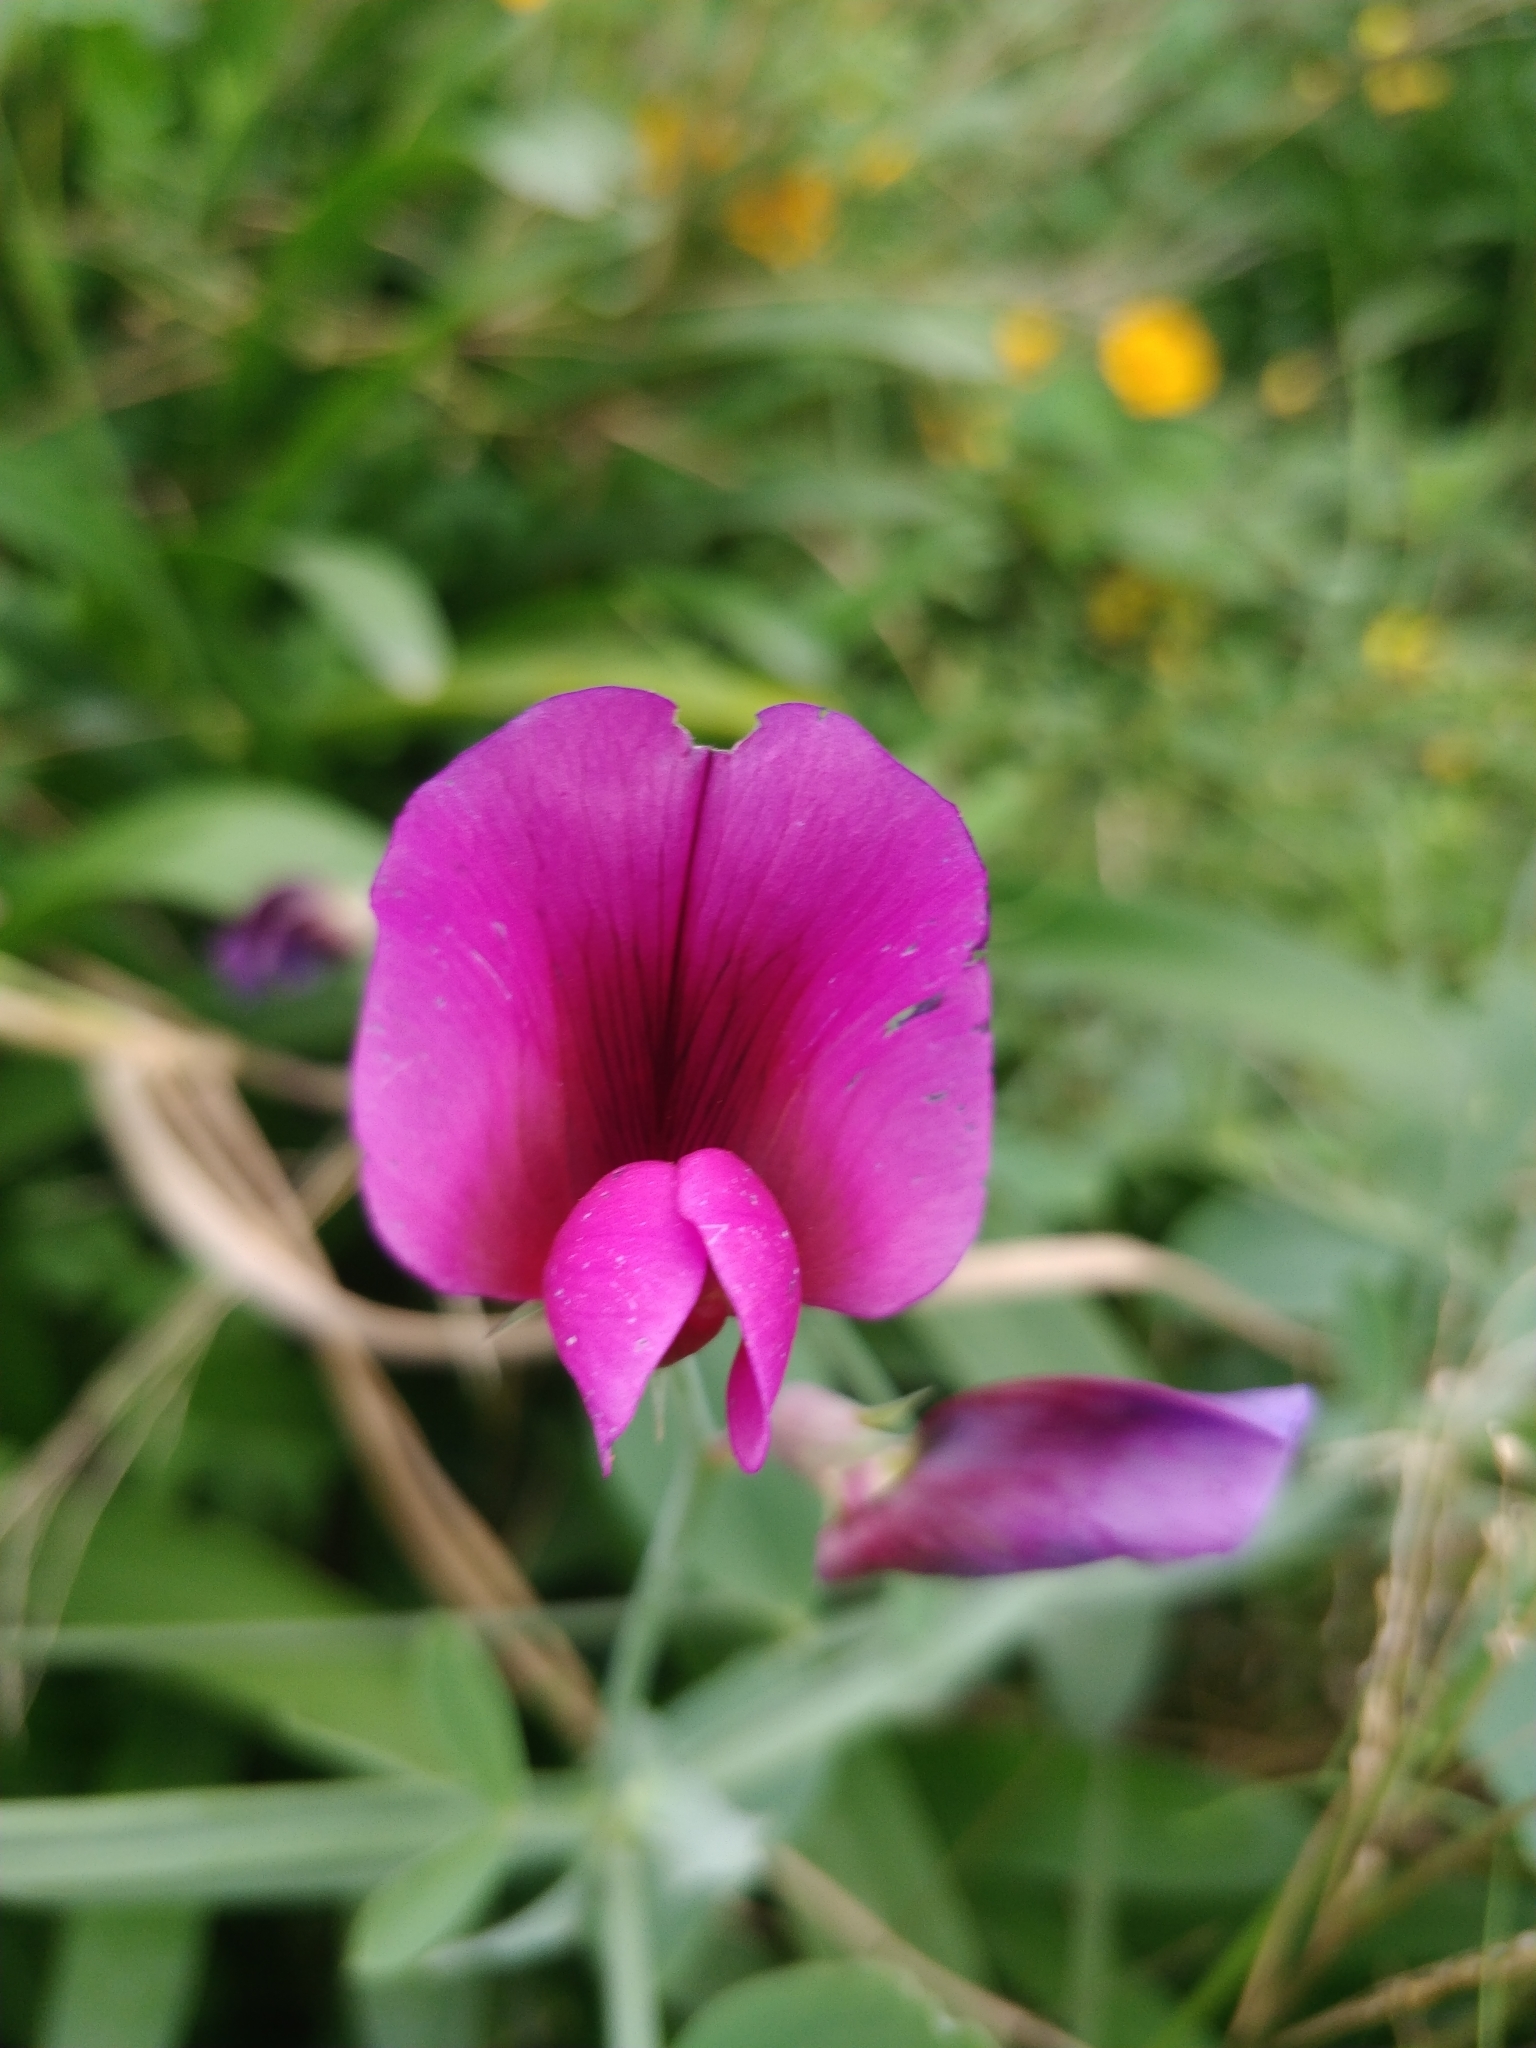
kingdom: Plantae
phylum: Tracheophyta
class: Magnoliopsida
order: Fabales
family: Fabaceae
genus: Lathyrus
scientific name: Lathyrus tingitanus
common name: Tangier pea
